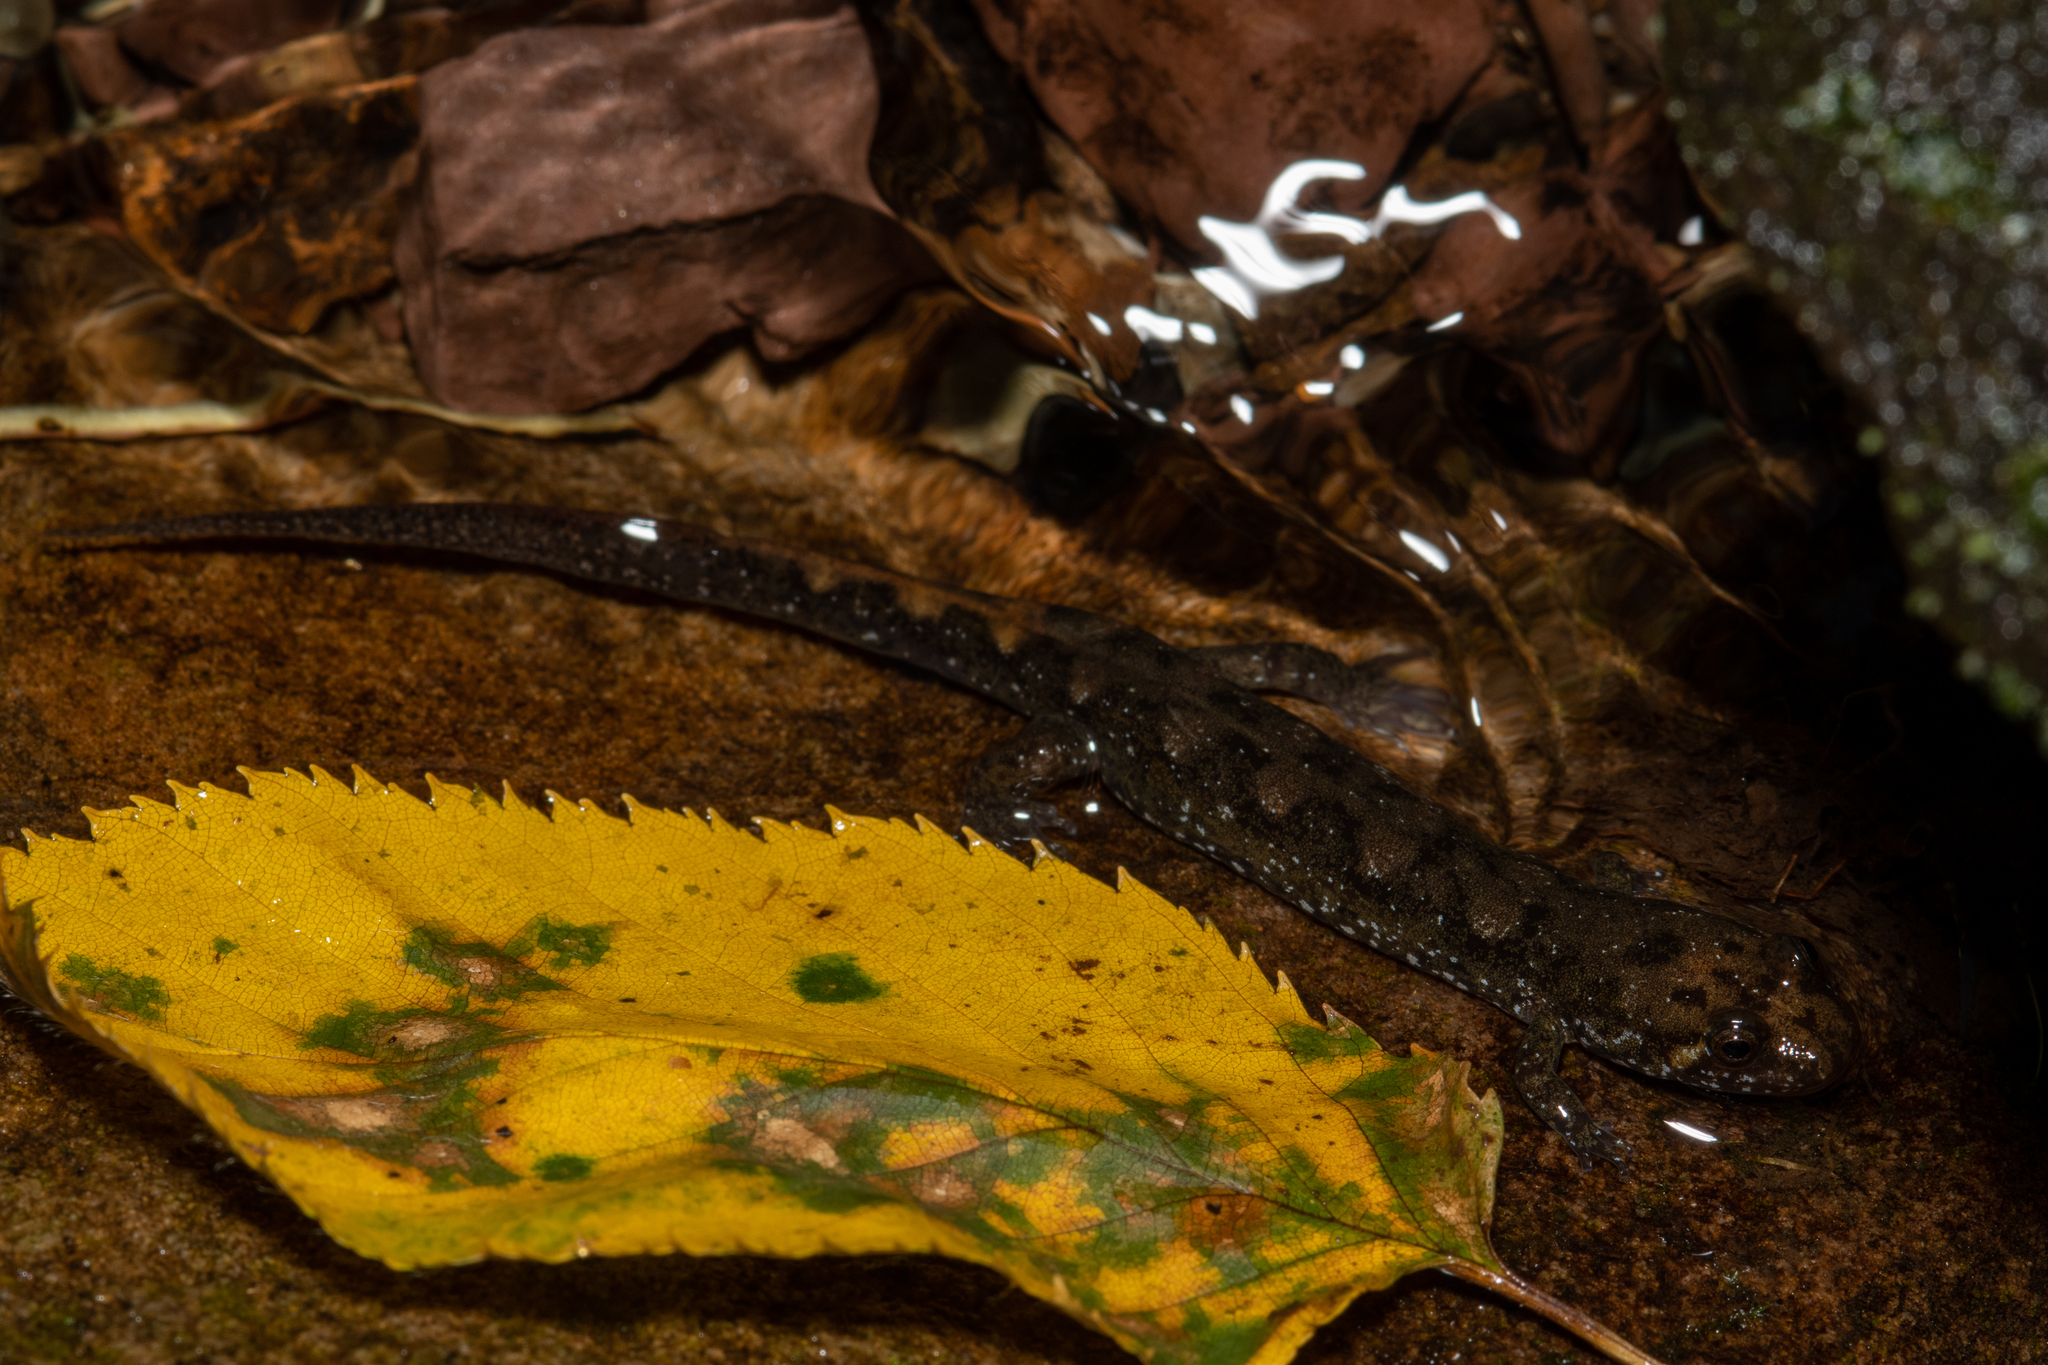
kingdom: Animalia
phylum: Chordata
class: Amphibia
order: Caudata
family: Plethodontidae
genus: Desmognathus
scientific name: Desmognathus monticola
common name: Seal salamander
